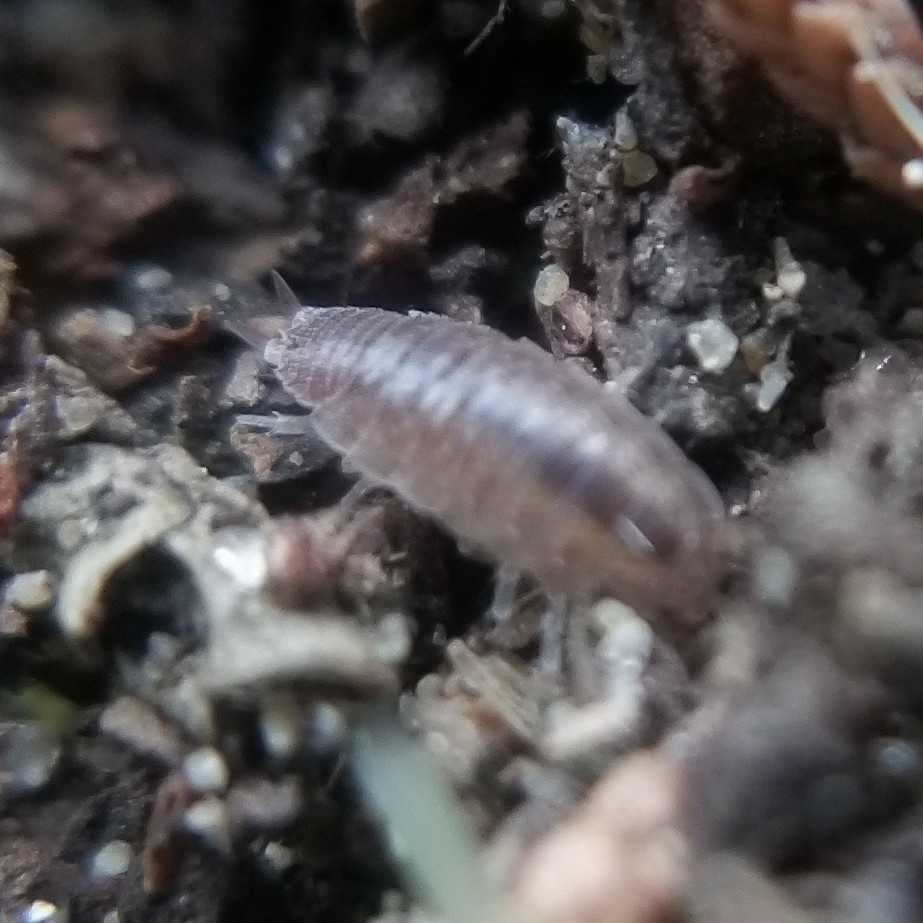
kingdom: Animalia
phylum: Arthropoda
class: Malacostraca
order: Isopoda
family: Platyarthridae
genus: Niambia
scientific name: Niambia capensis
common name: Isopod
